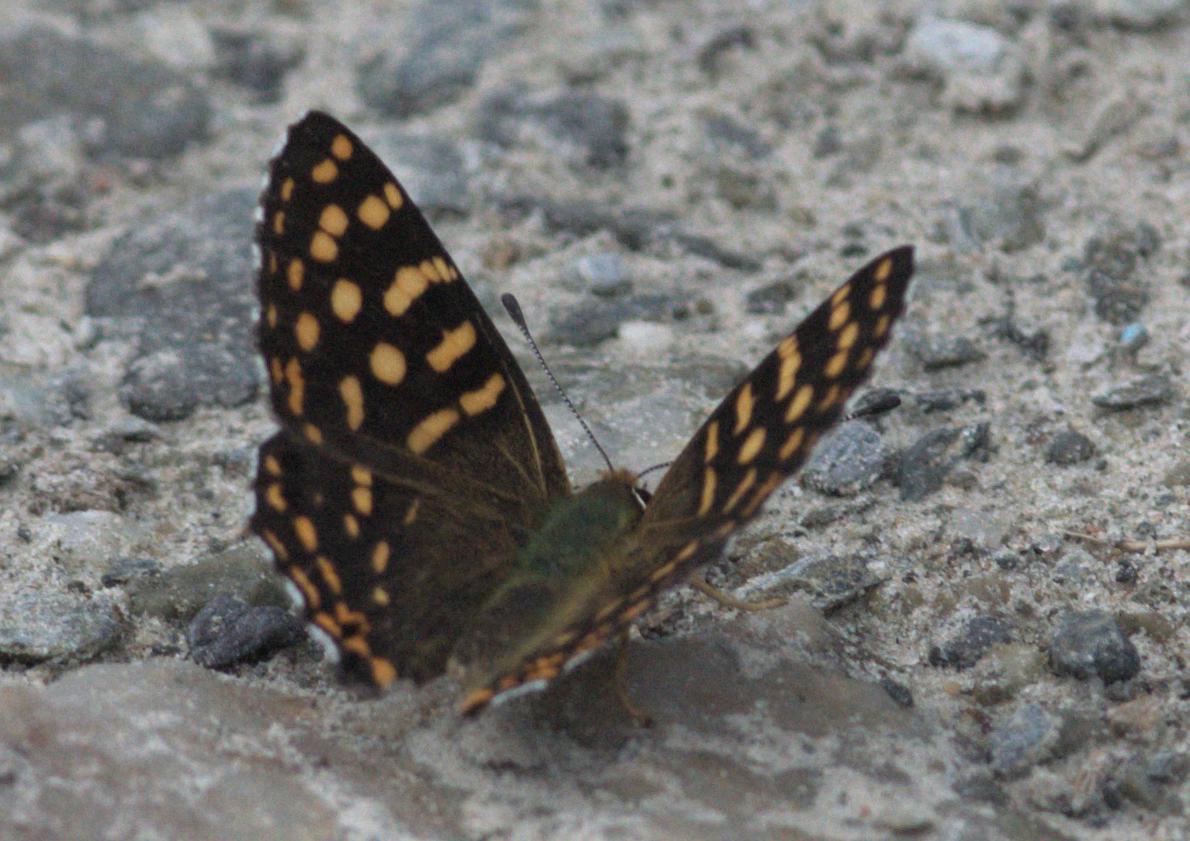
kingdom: Animalia
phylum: Arthropoda
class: Insecta
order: Lepidoptera
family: Lycaenidae
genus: Dodona
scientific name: Dodona durga
